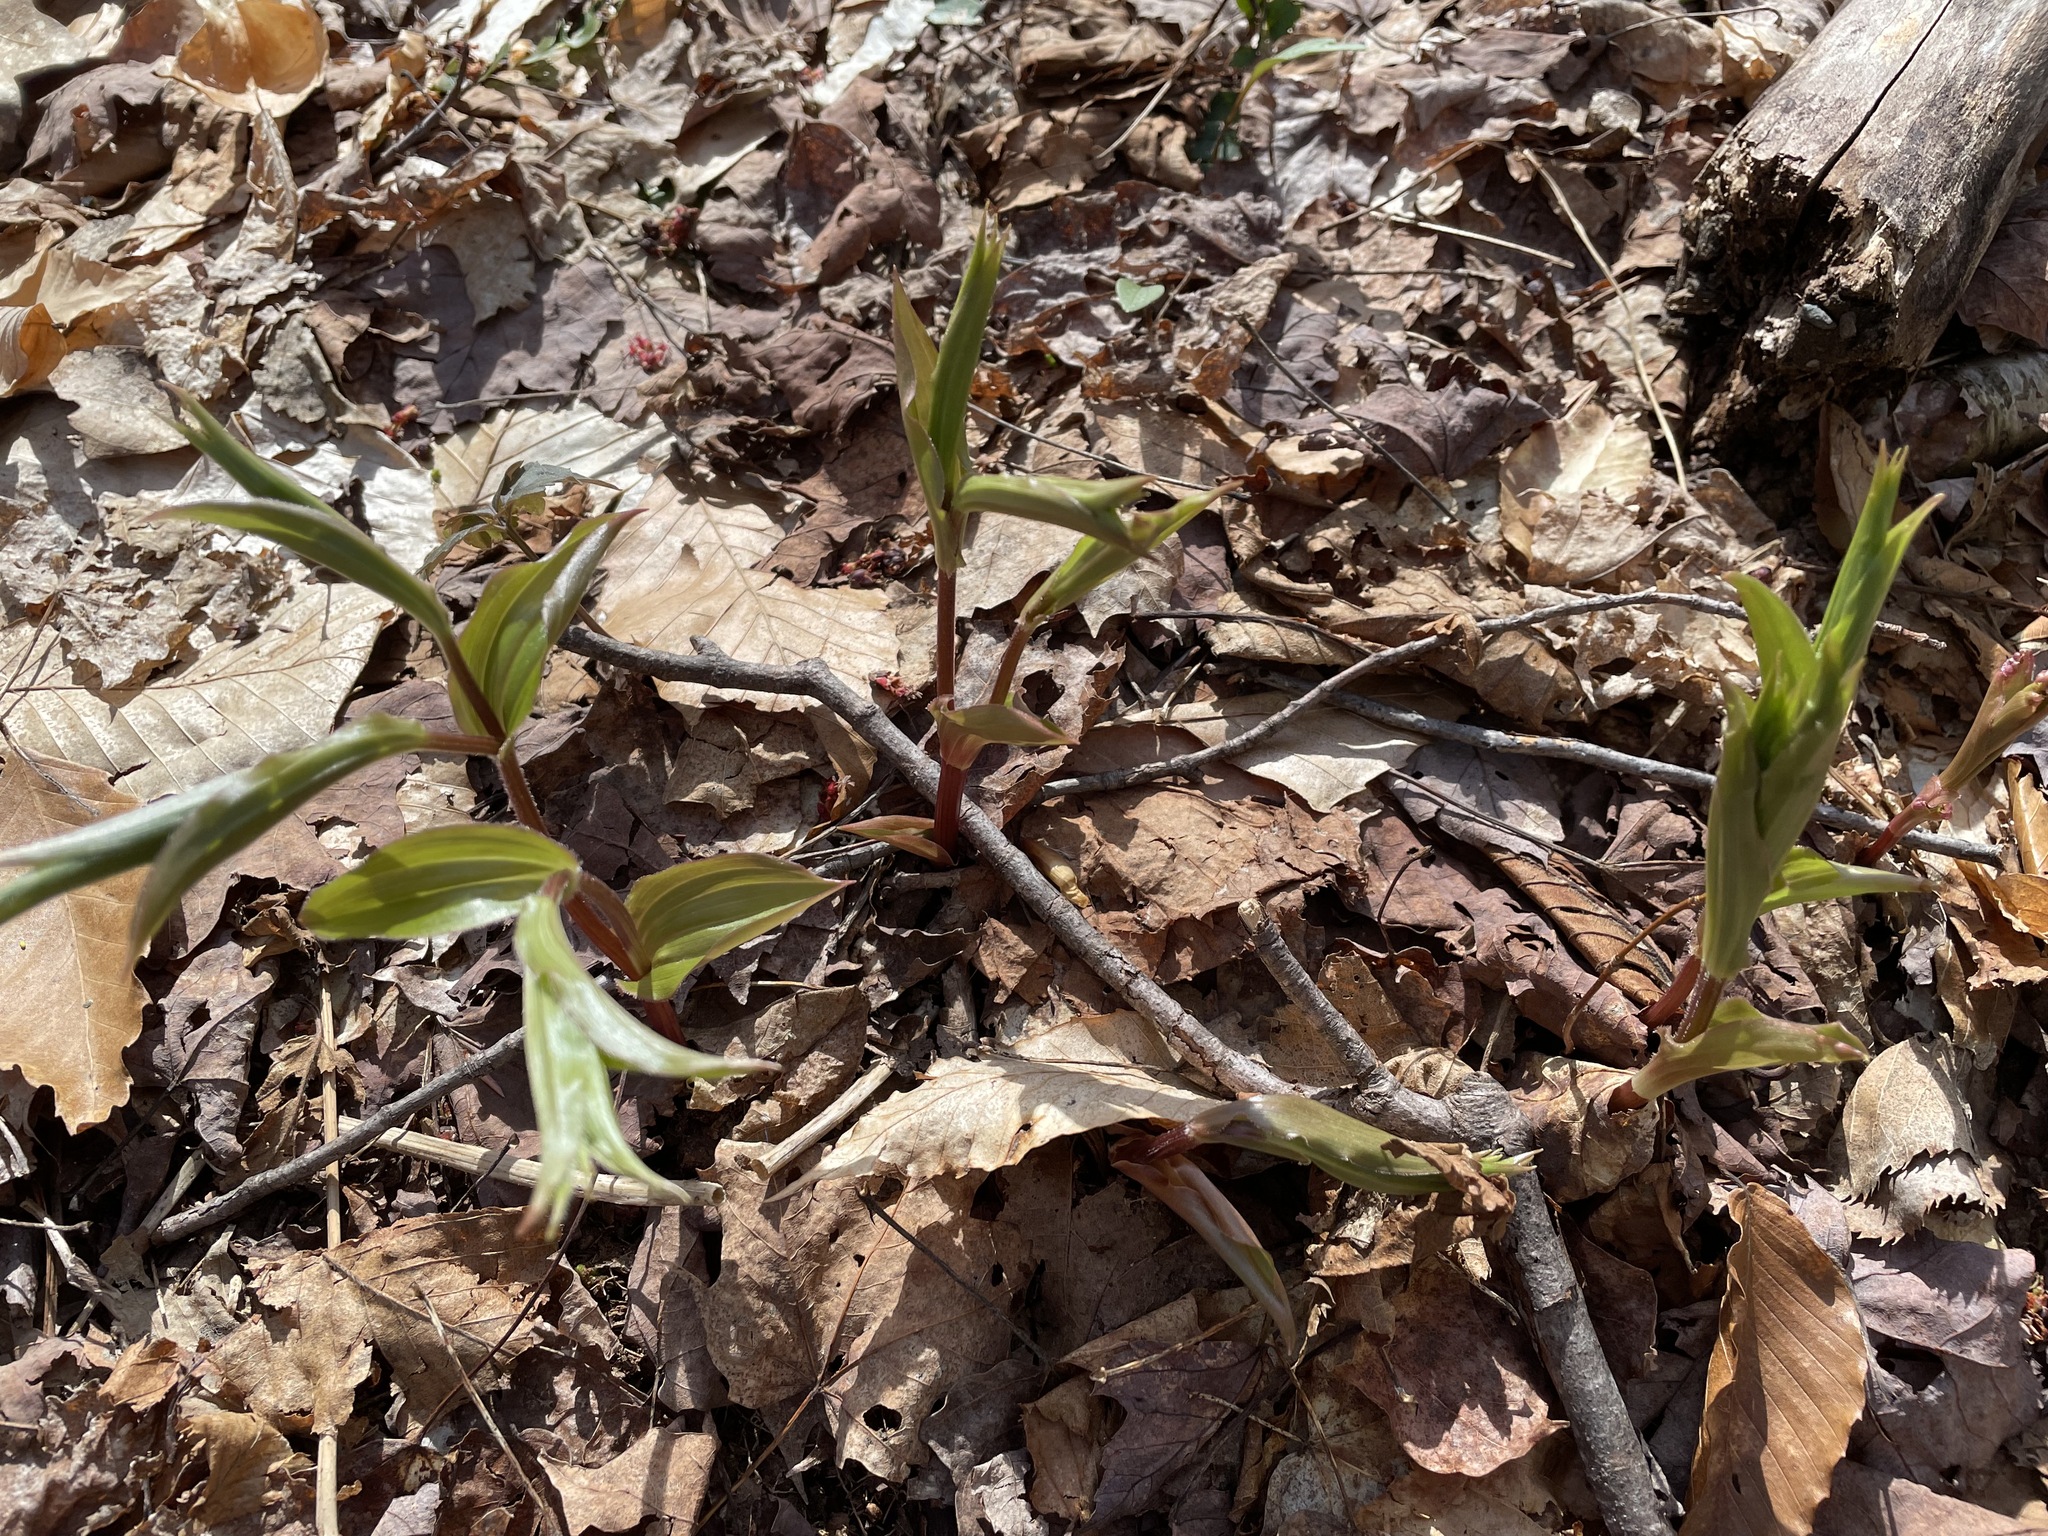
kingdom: Plantae
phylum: Tracheophyta
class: Liliopsida
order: Liliales
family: Liliaceae
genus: Streptopus
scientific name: Streptopus lanceolatus
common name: Rose mandarin
